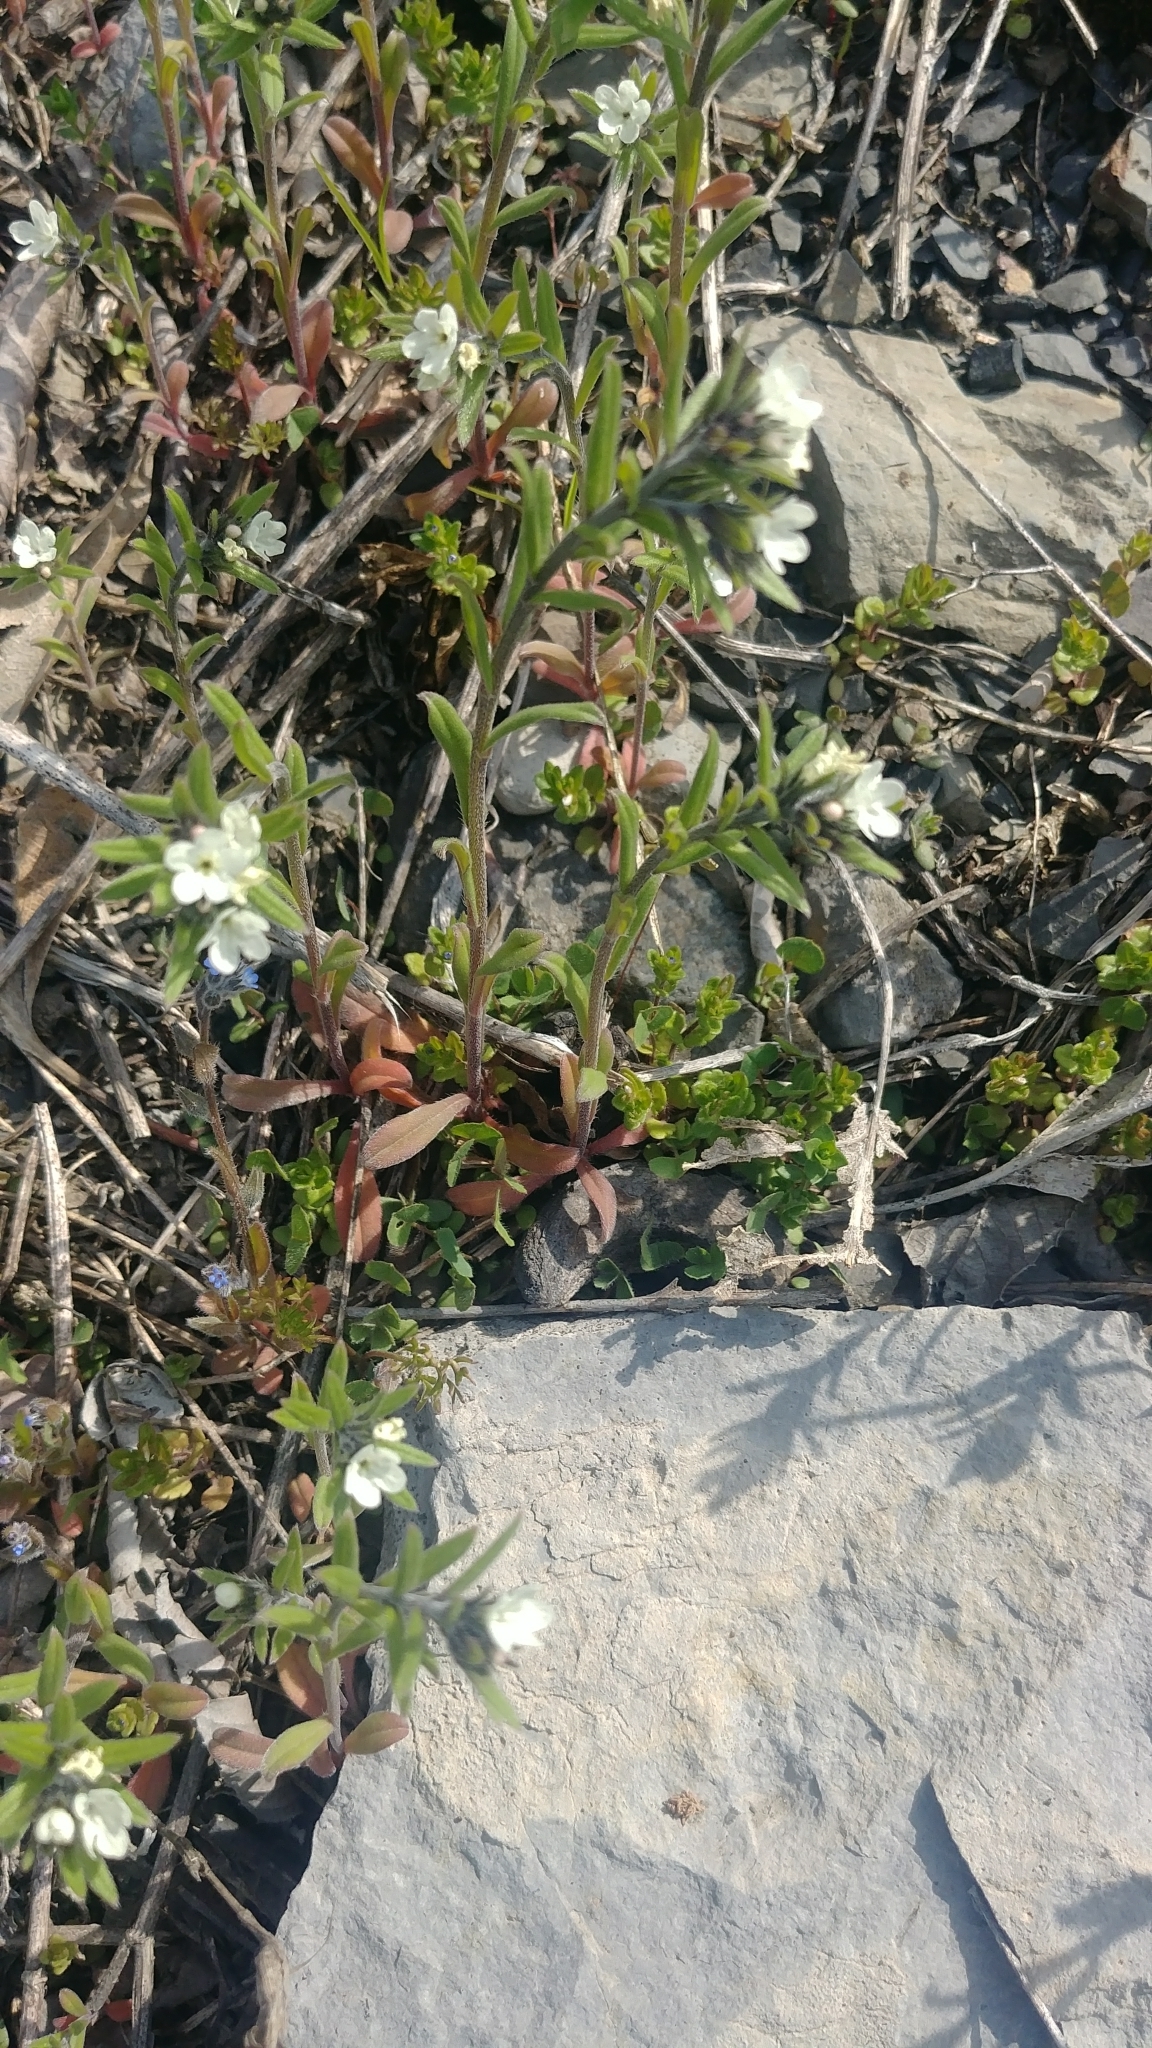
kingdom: Plantae
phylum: Tracheophyta
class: Magnoliopsida
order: Boraginales
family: Boraginaceae
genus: Buglossoides
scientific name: Buglossoides arvensis
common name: Corn gromwell
